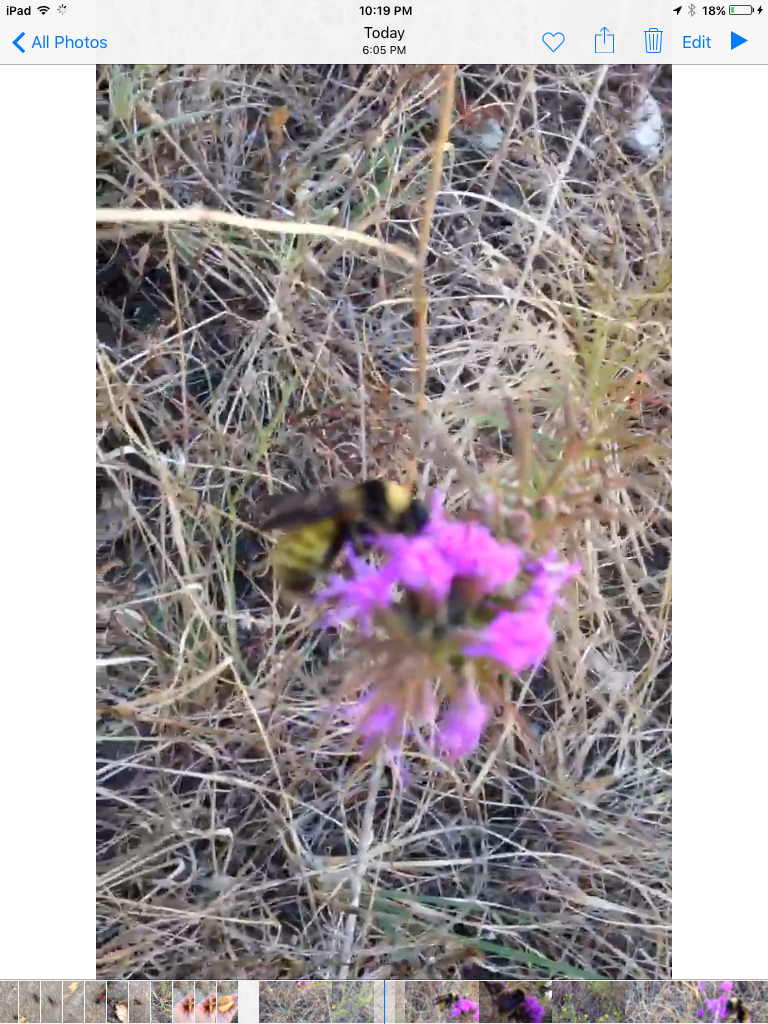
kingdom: Animalia
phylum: Arthropoda
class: Insecta
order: Hymenoptera
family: Apidae
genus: Bombus
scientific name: Bombus pensylvanicus
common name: Bumble bee
